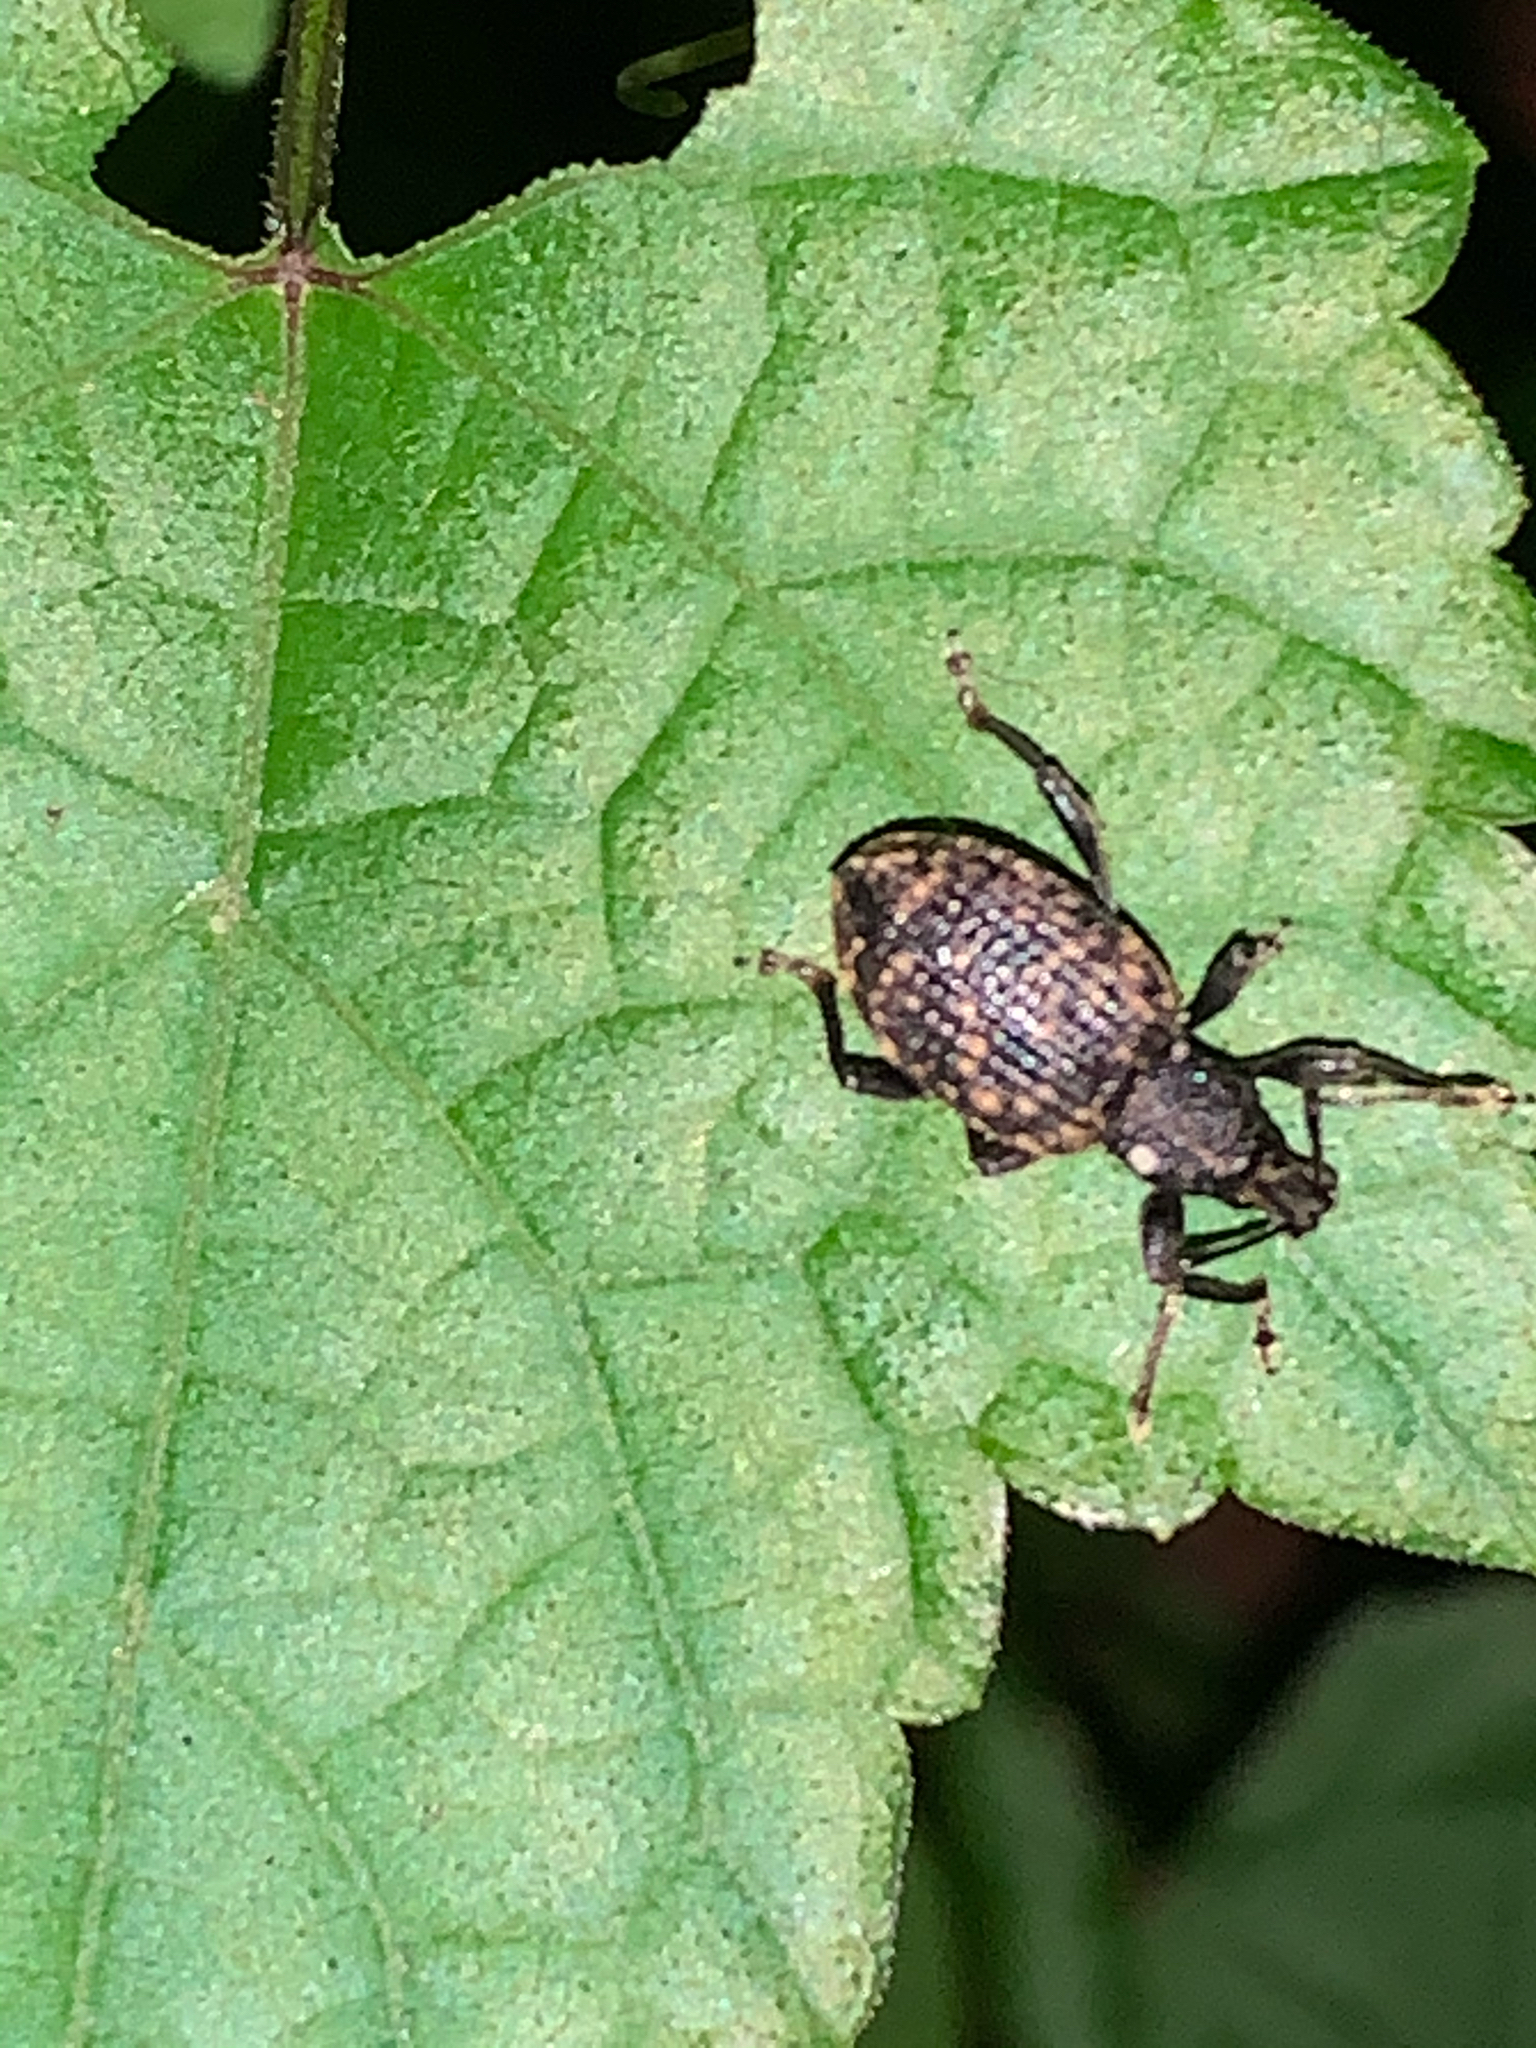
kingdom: Animalia
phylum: Arthropoda
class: Insecta
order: Coleoptera
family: Curculionidae
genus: Otiorhynchus
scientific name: Otiorhynchus sulcatus
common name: Black vine weevil
